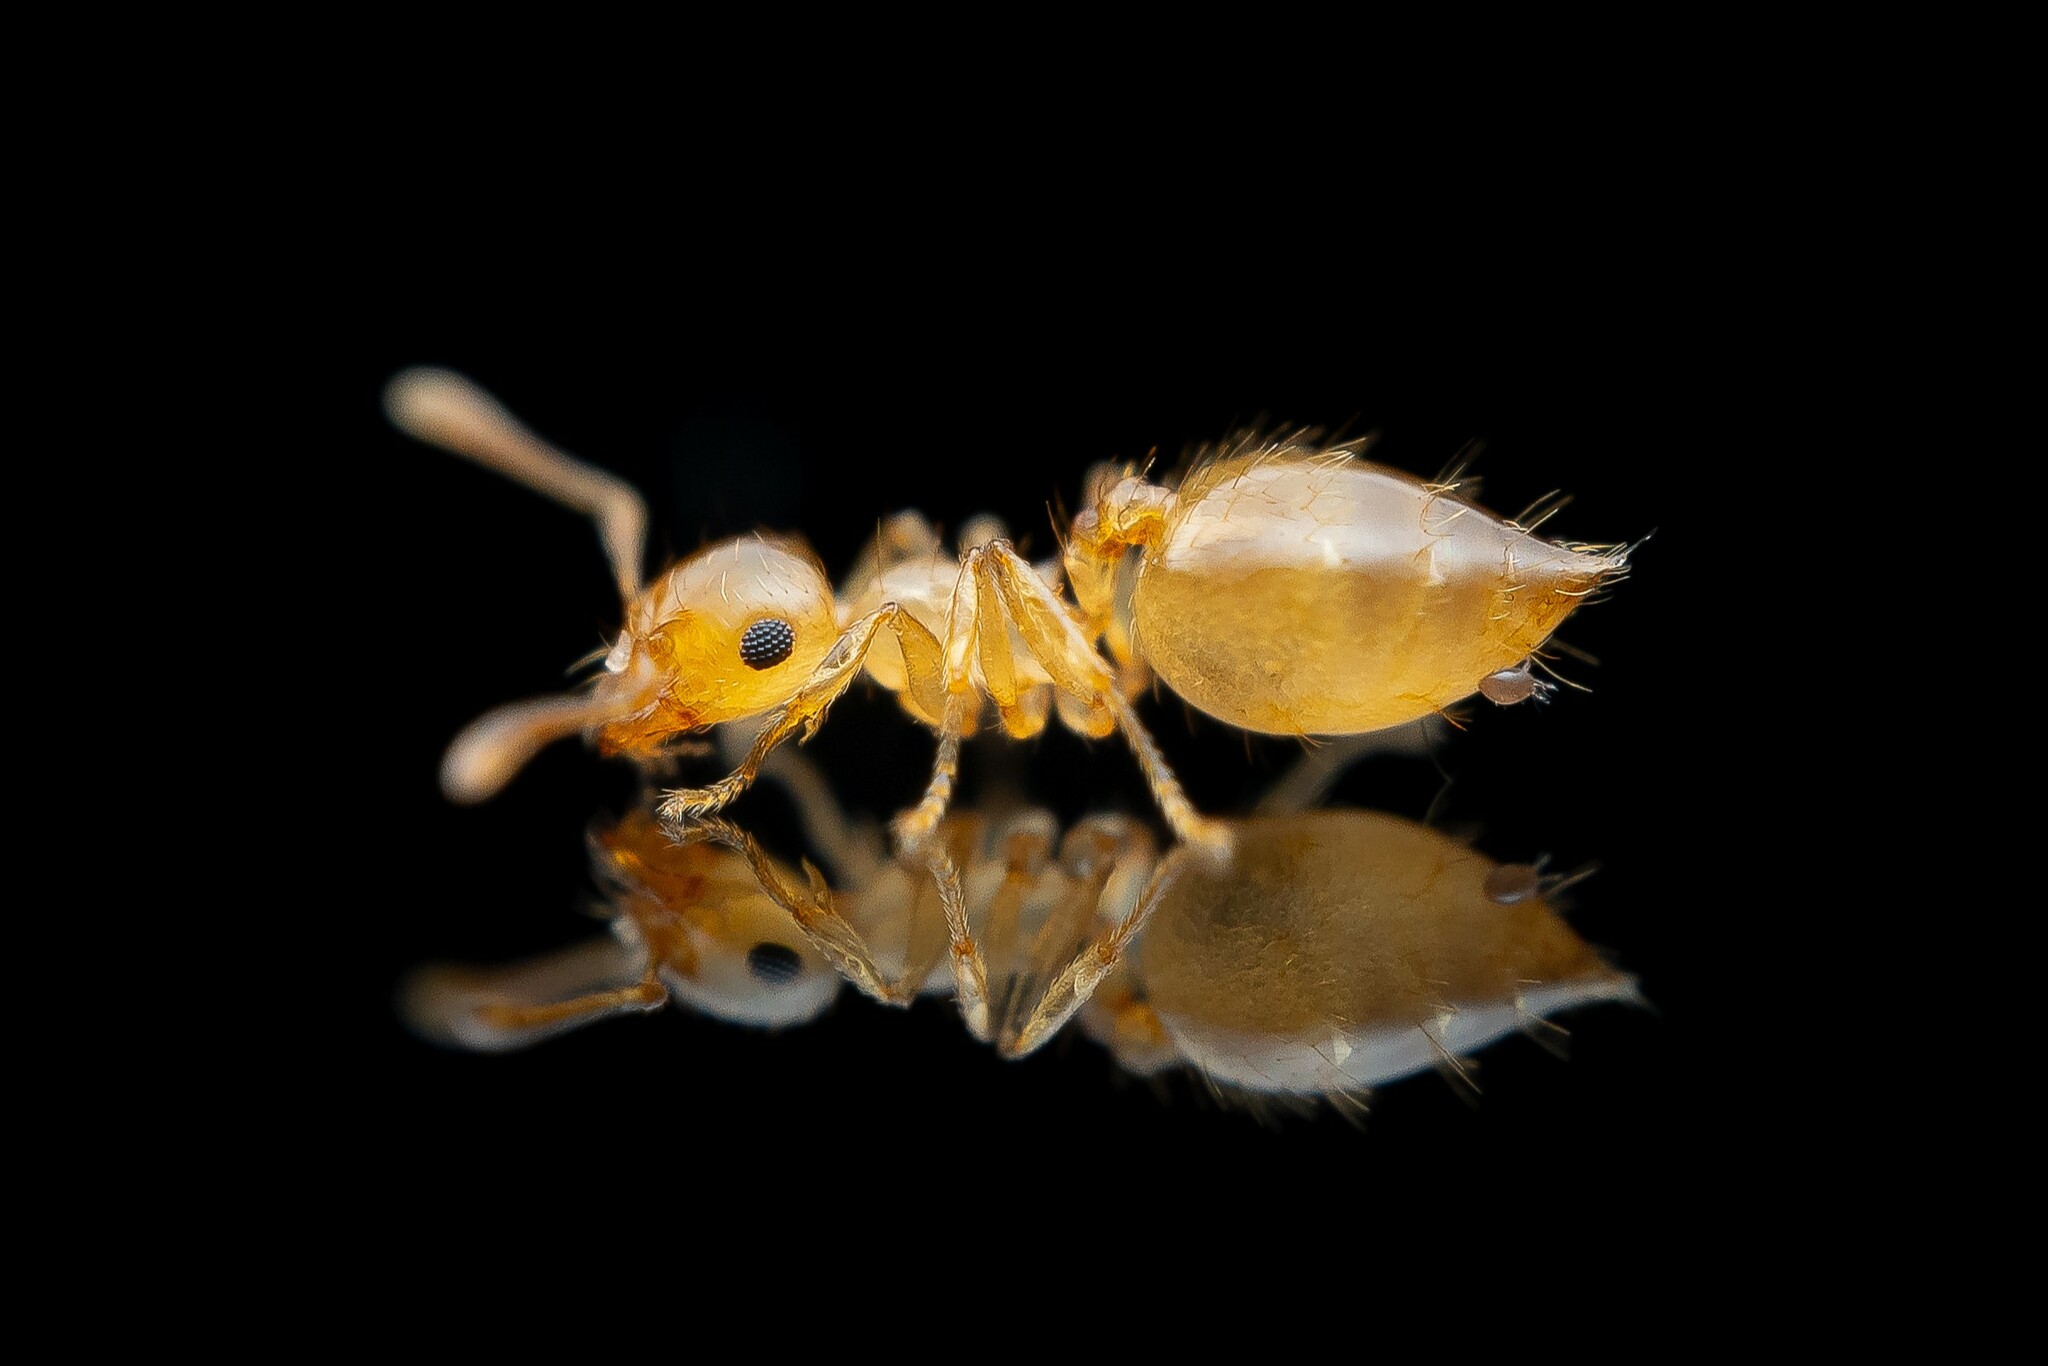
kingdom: Animalia
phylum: Arthropoda
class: Insecta
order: Hymenoptera
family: Formicidae
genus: Crematogaster
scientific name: Crematogaster missouriensis
